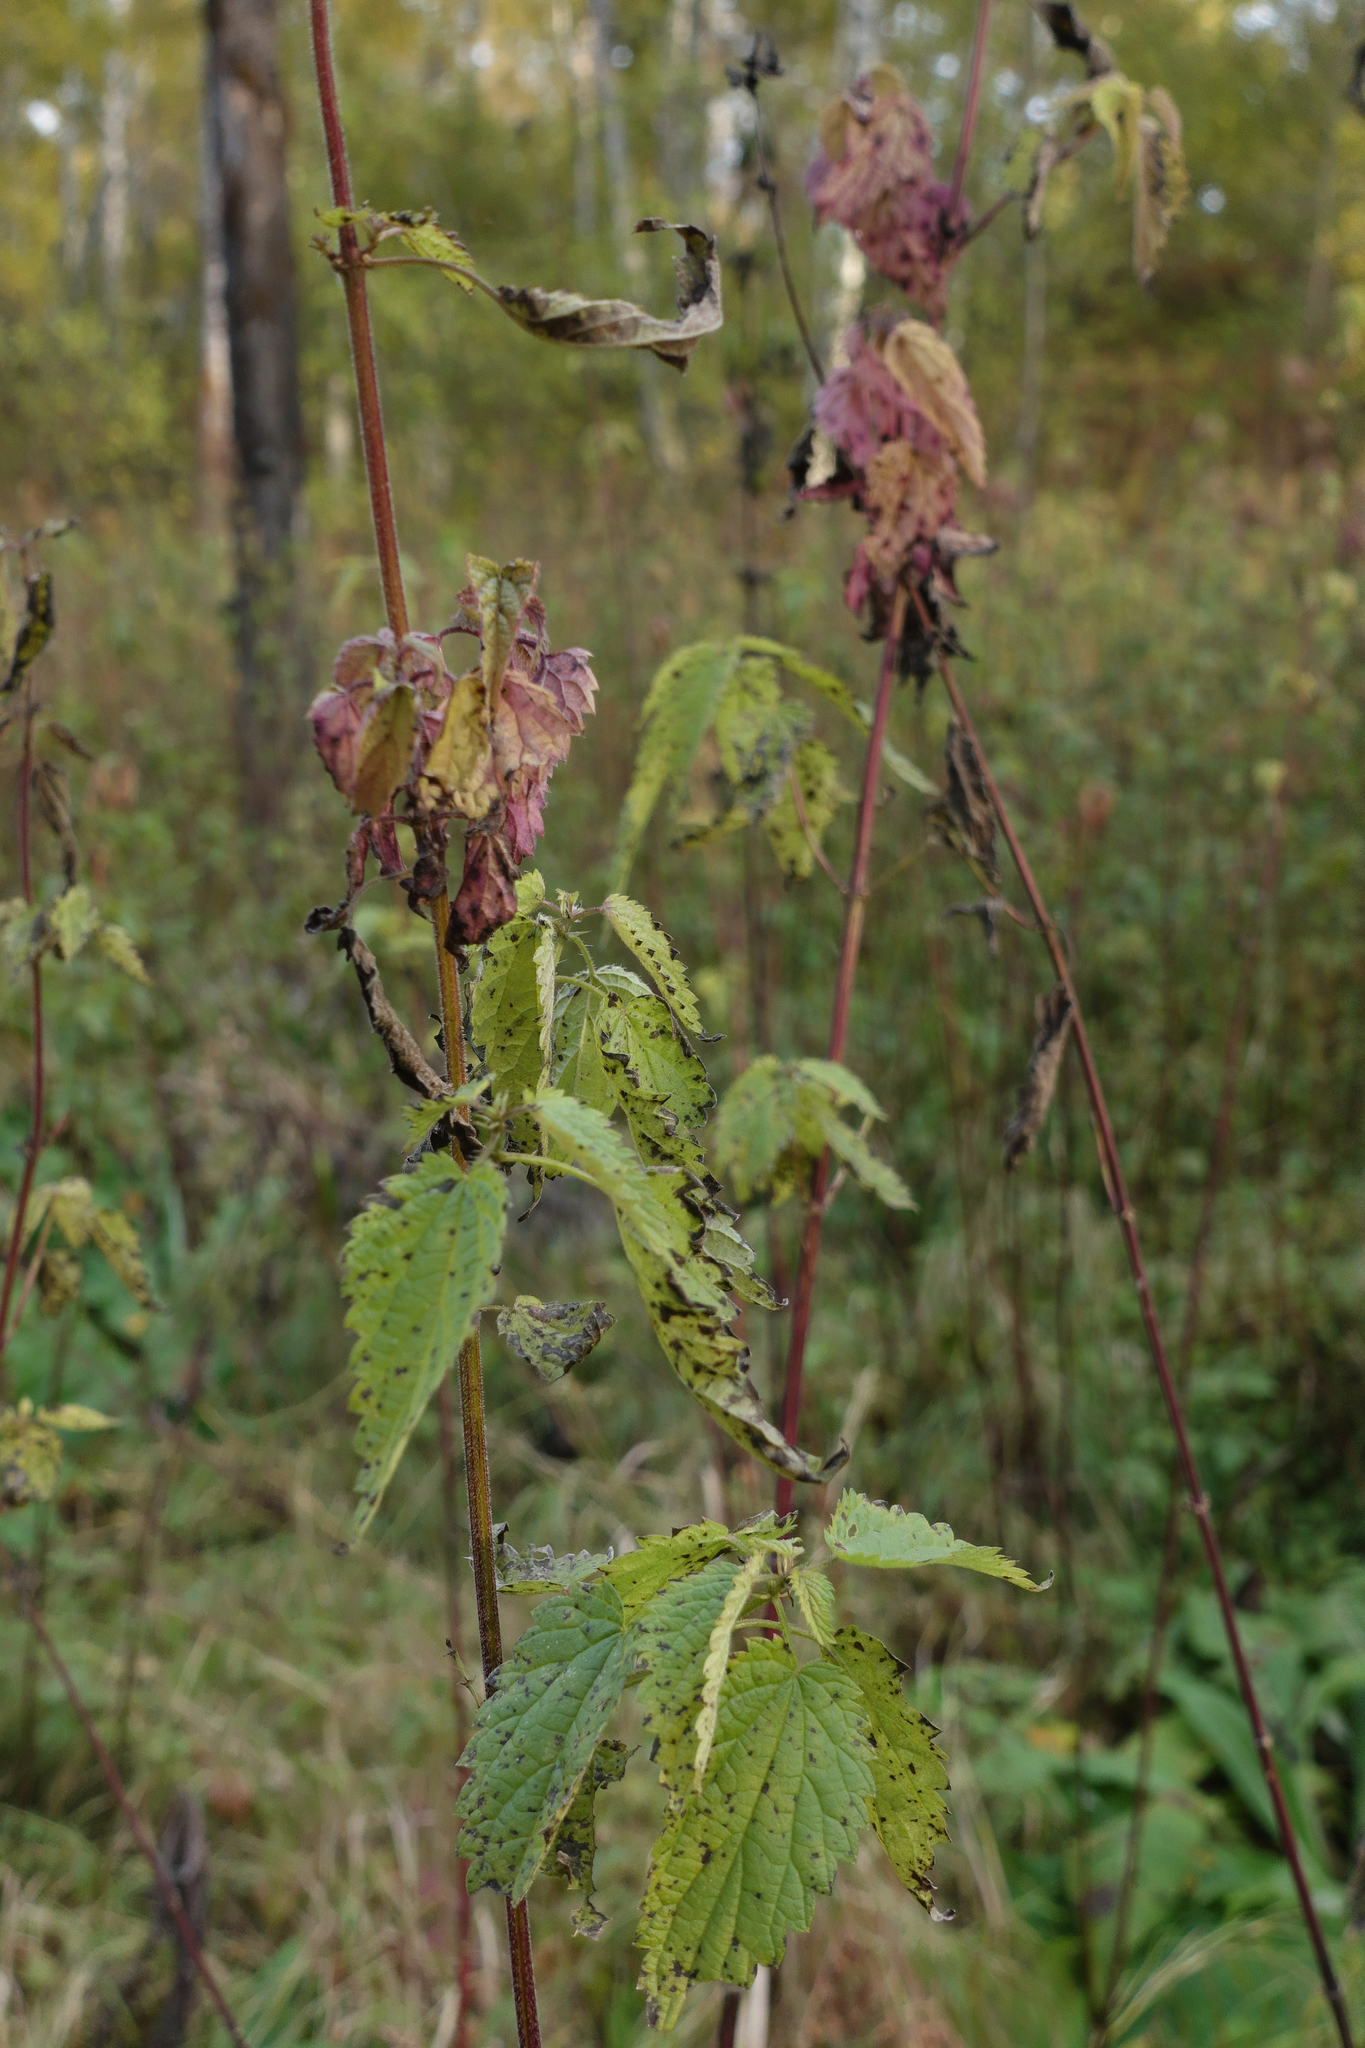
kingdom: Plantae
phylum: Tracheophyta
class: Magnoliopsida
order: Rosales
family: Urticaceae
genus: Urtica
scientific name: Urtica dioica
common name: Common nettle
